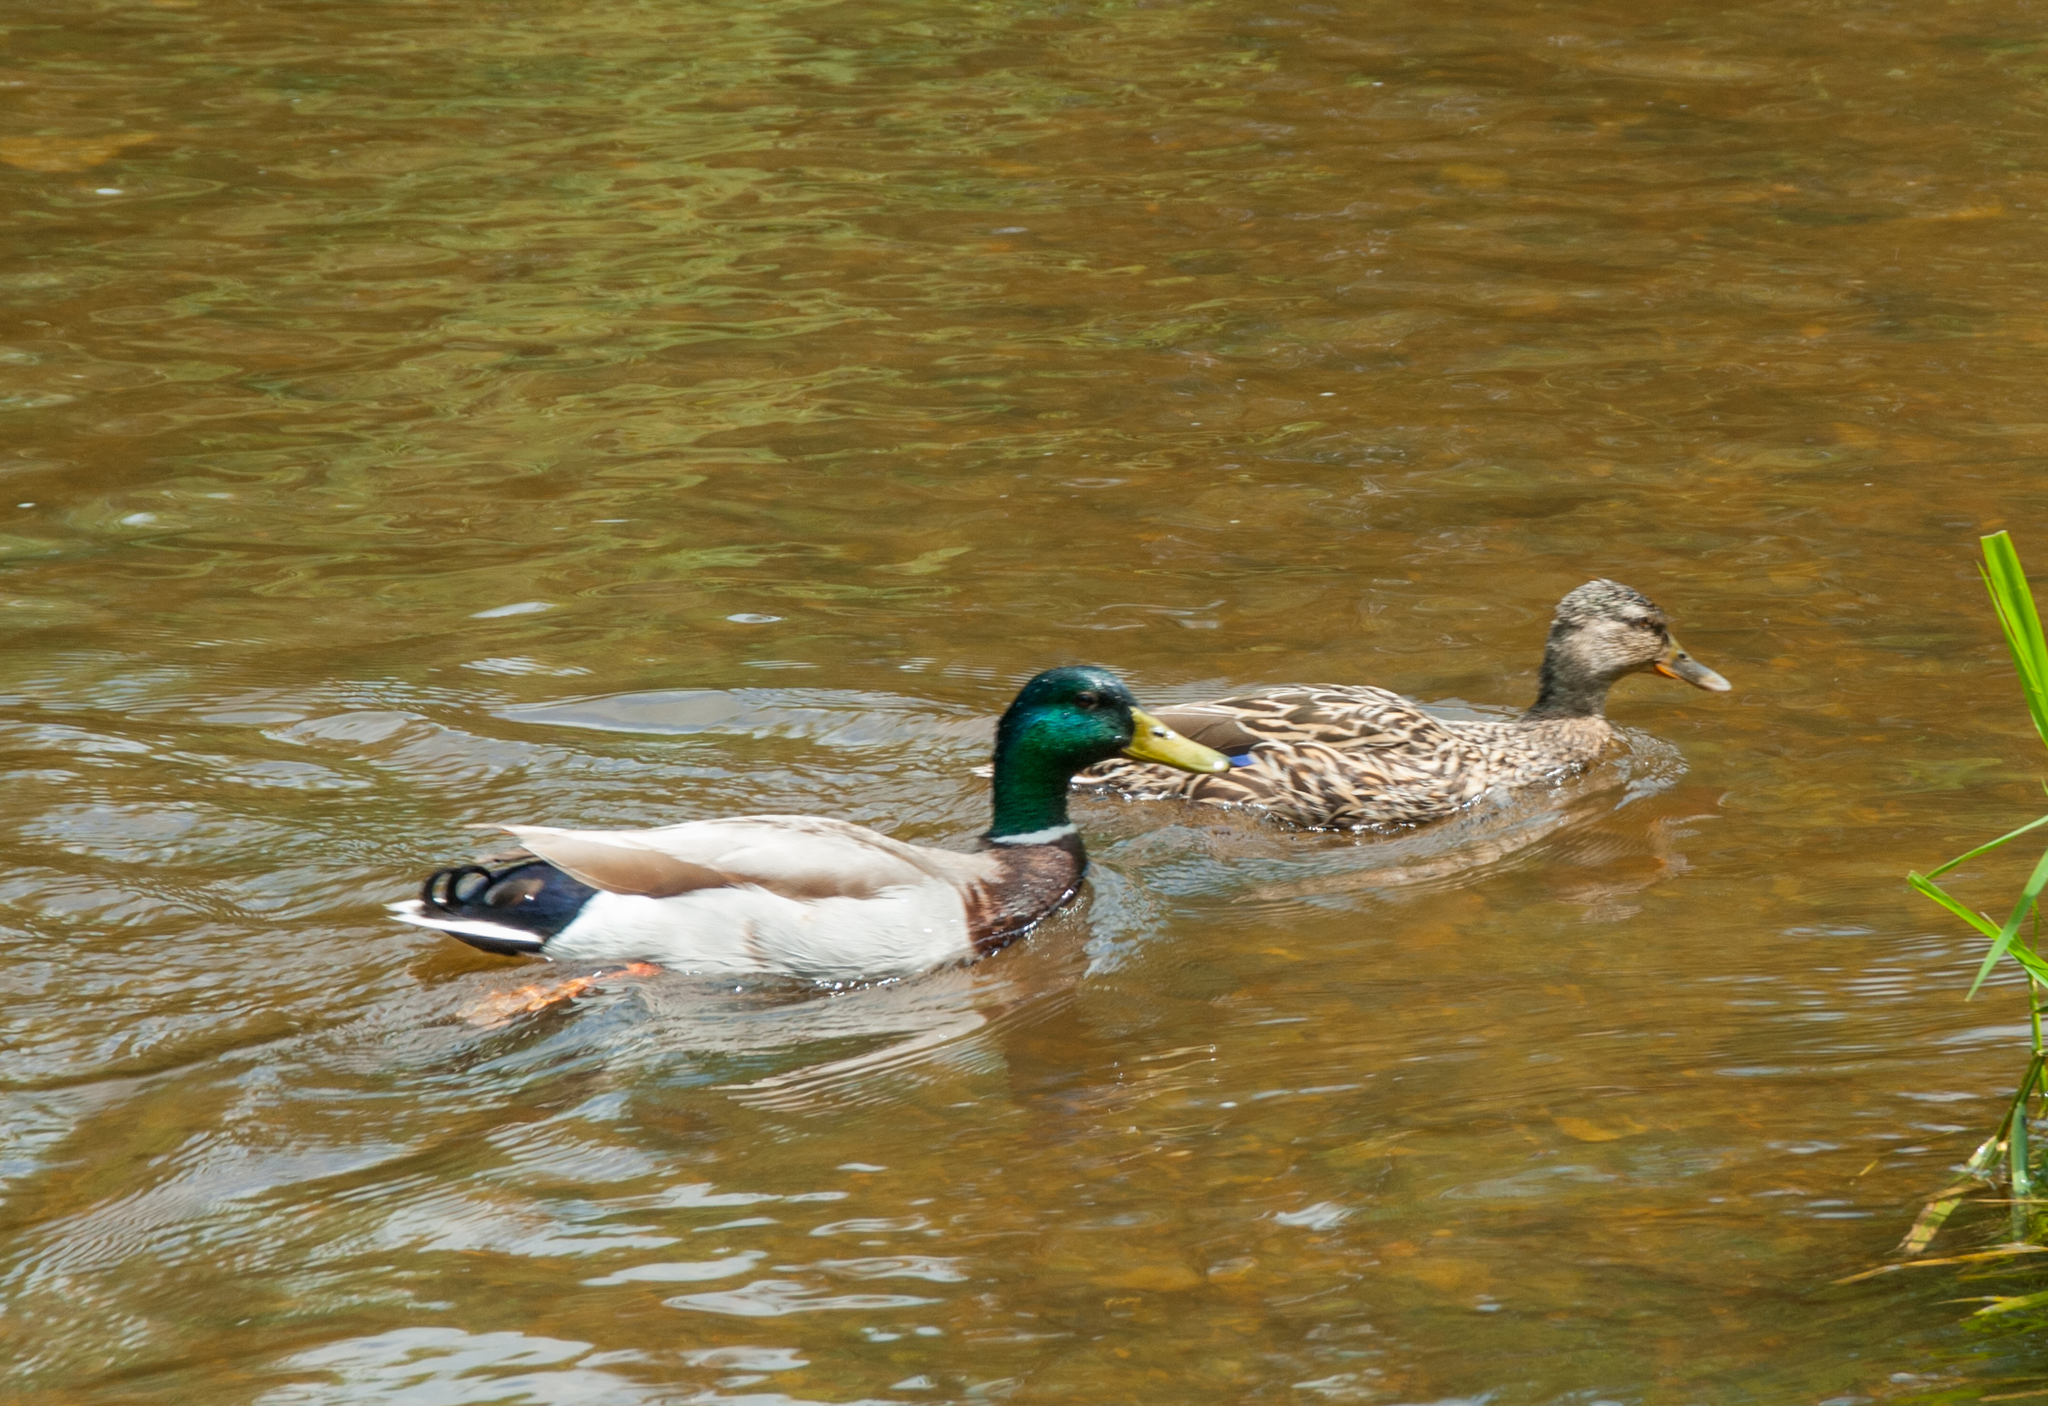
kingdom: Animalia
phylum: Chordata
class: Aves
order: Anseriformes
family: Anatidae
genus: Anas
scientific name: Anas platyrhynchos
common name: Mallard
